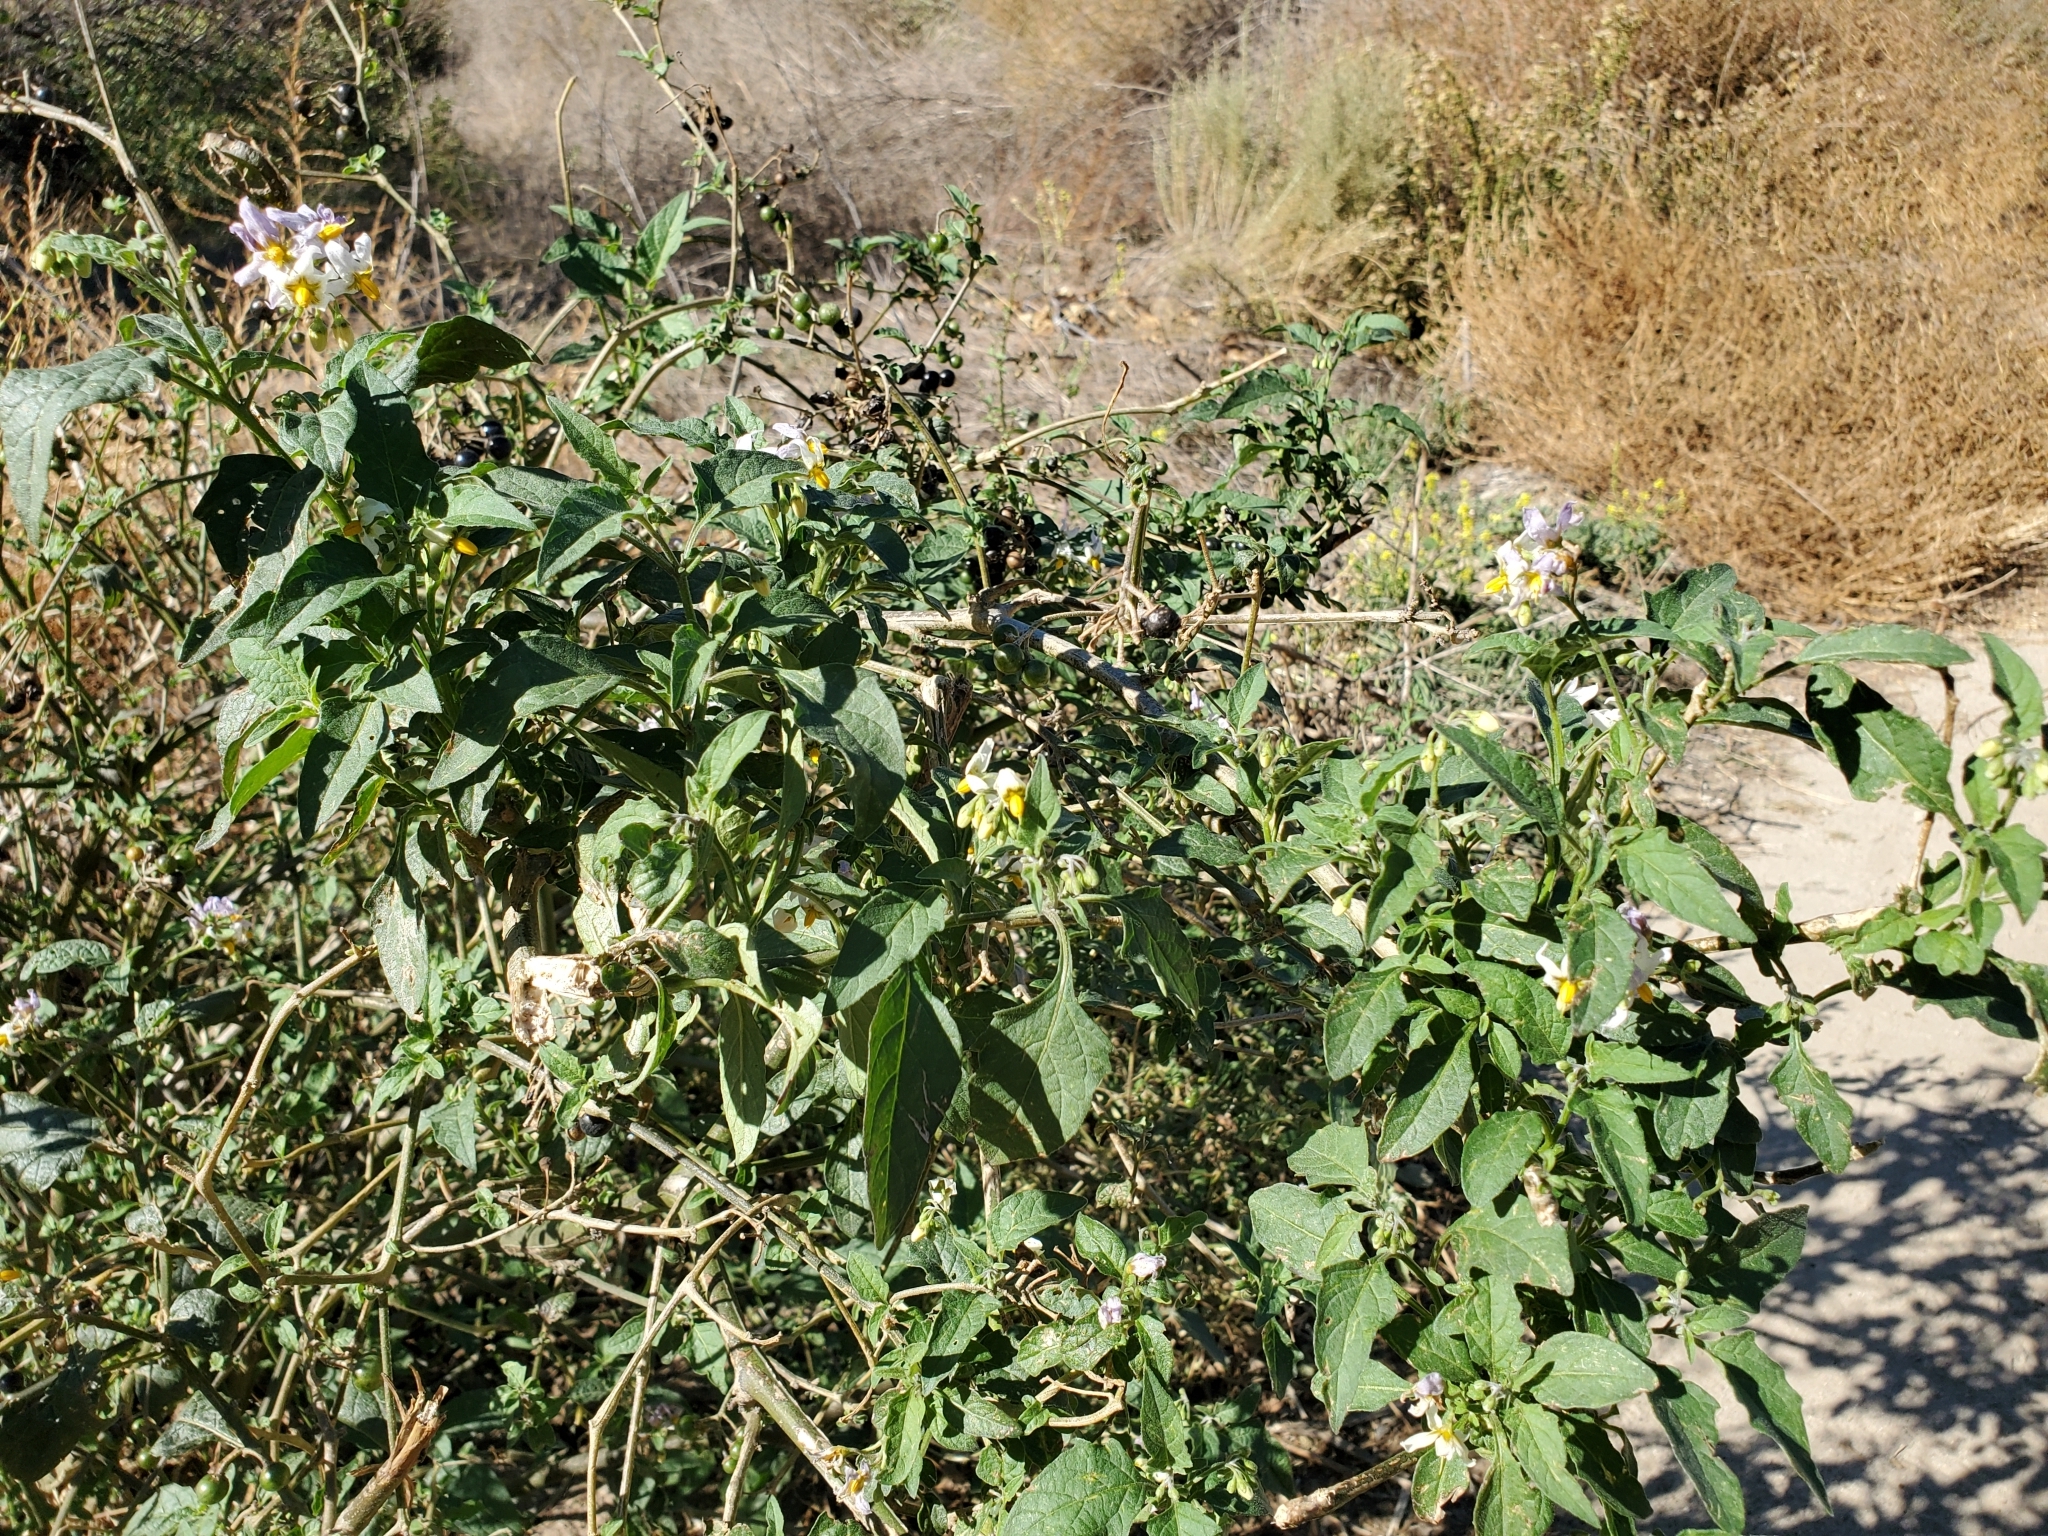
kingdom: Plantae
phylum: Tracheophyta
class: Magnoliopsida
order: Solanales
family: Solanaceae
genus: Solanum
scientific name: Solanum douglasii
